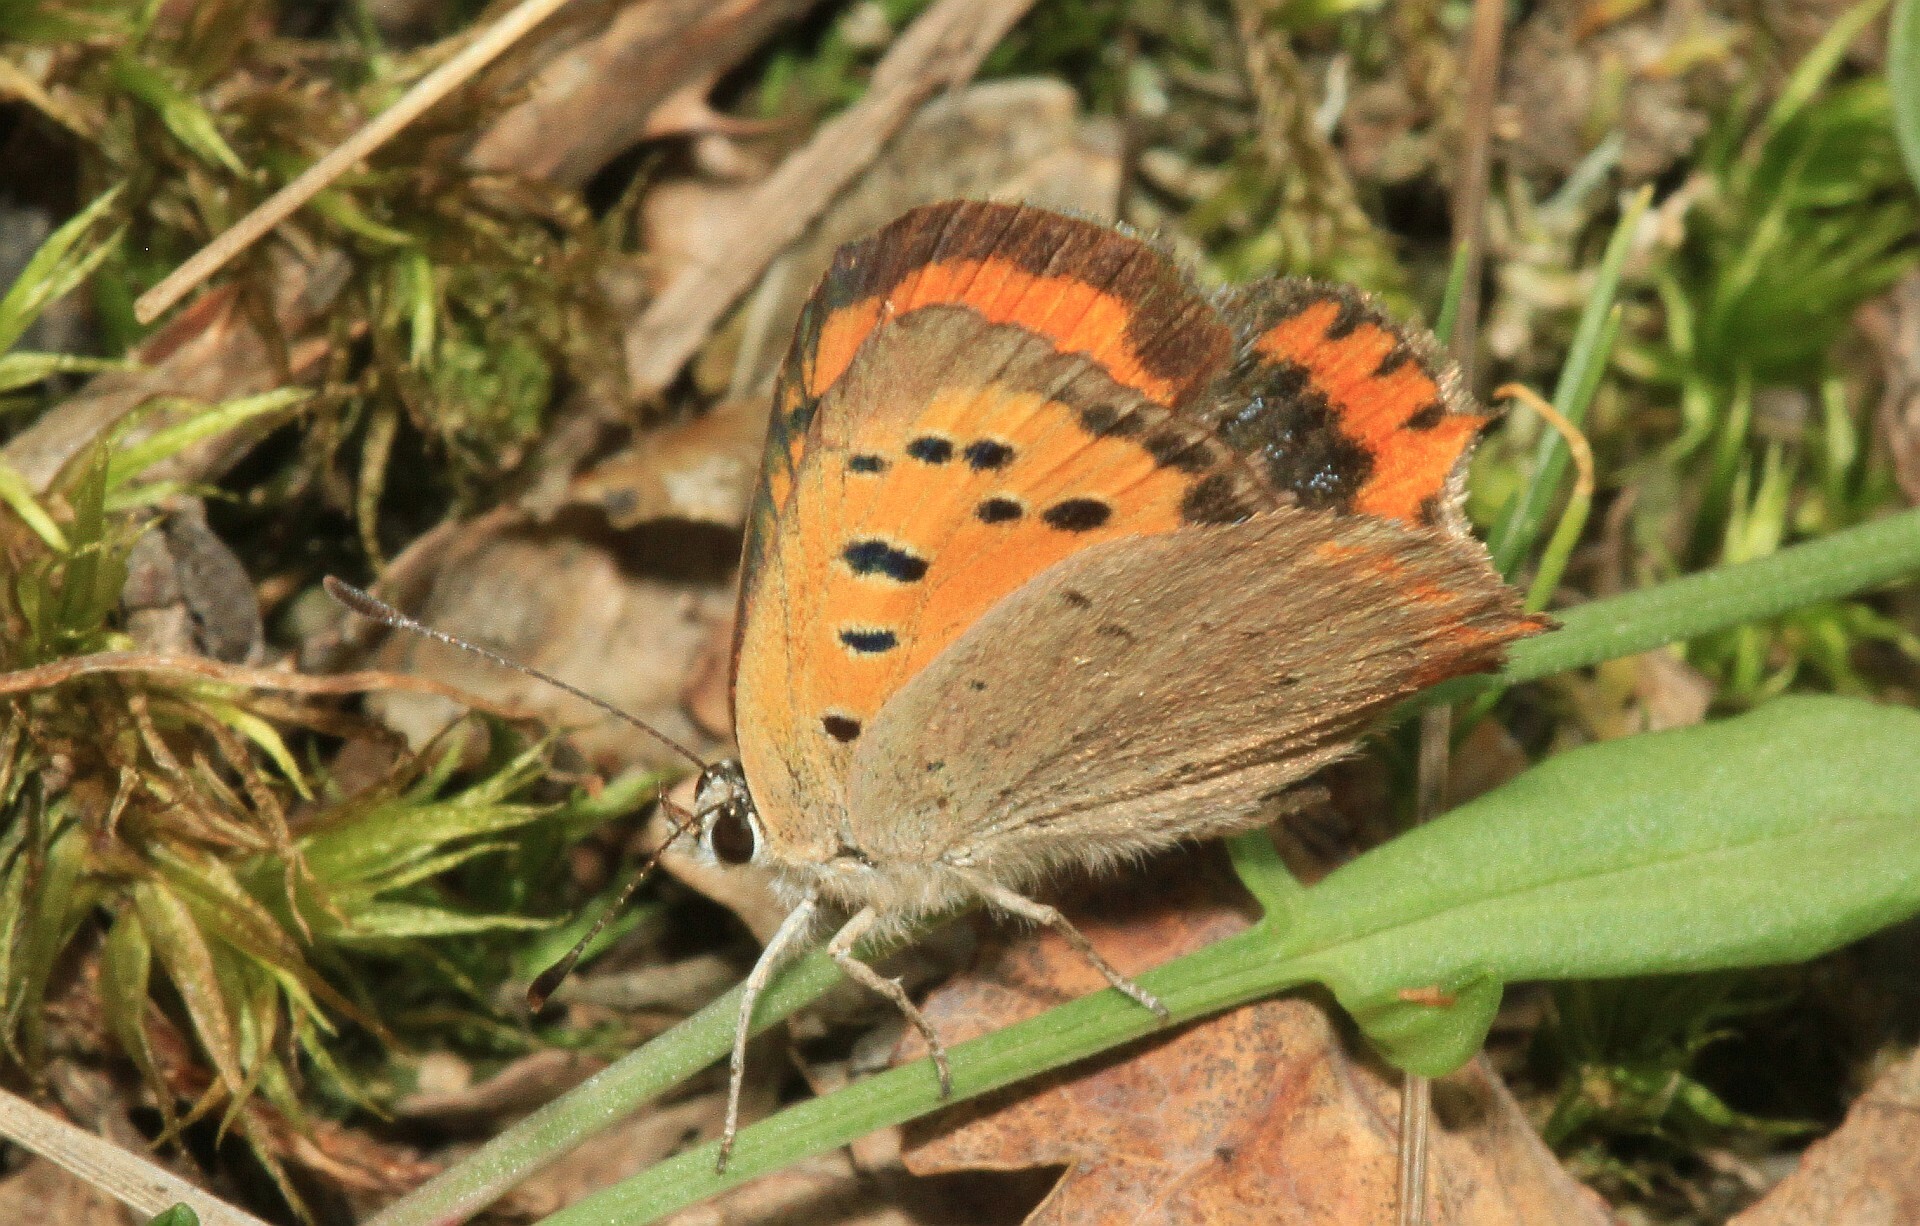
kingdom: Animalia
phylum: Arthropoda
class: Insecta
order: Lepidoptera
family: Lycaenidae
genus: Lycaena
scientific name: Lycaena phlaeas
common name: Small copper
